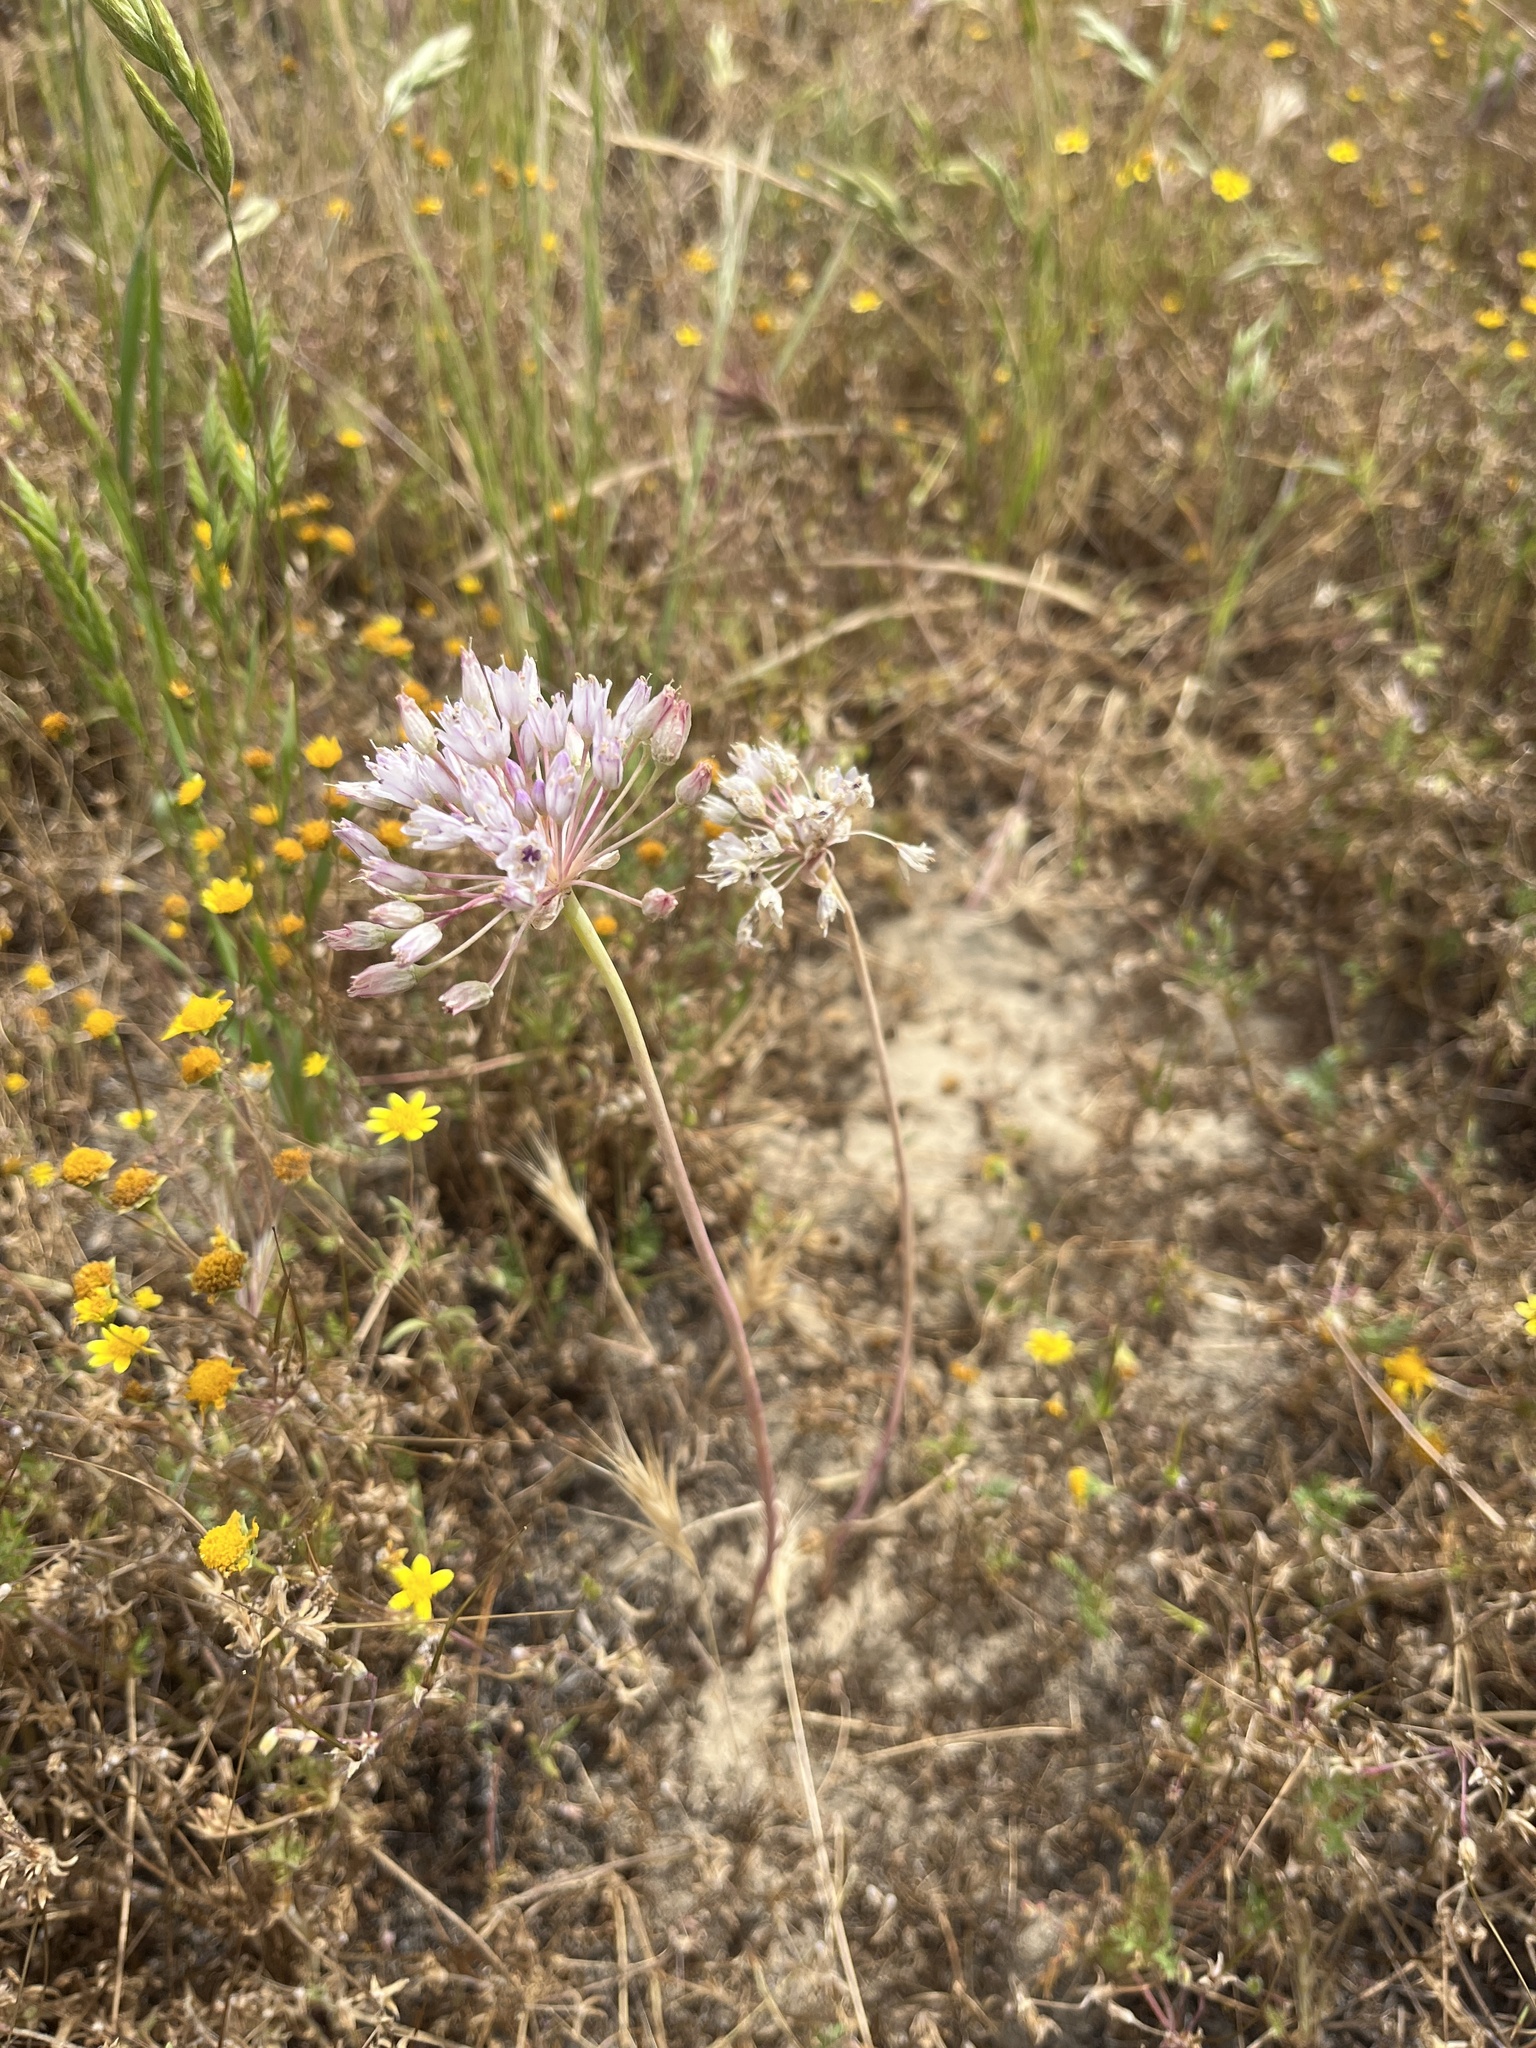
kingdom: Plantae
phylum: Tracheophyta
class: Liliopsida
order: Asparagales
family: Amaryllidaceae
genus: Allium
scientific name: Allium howellii
